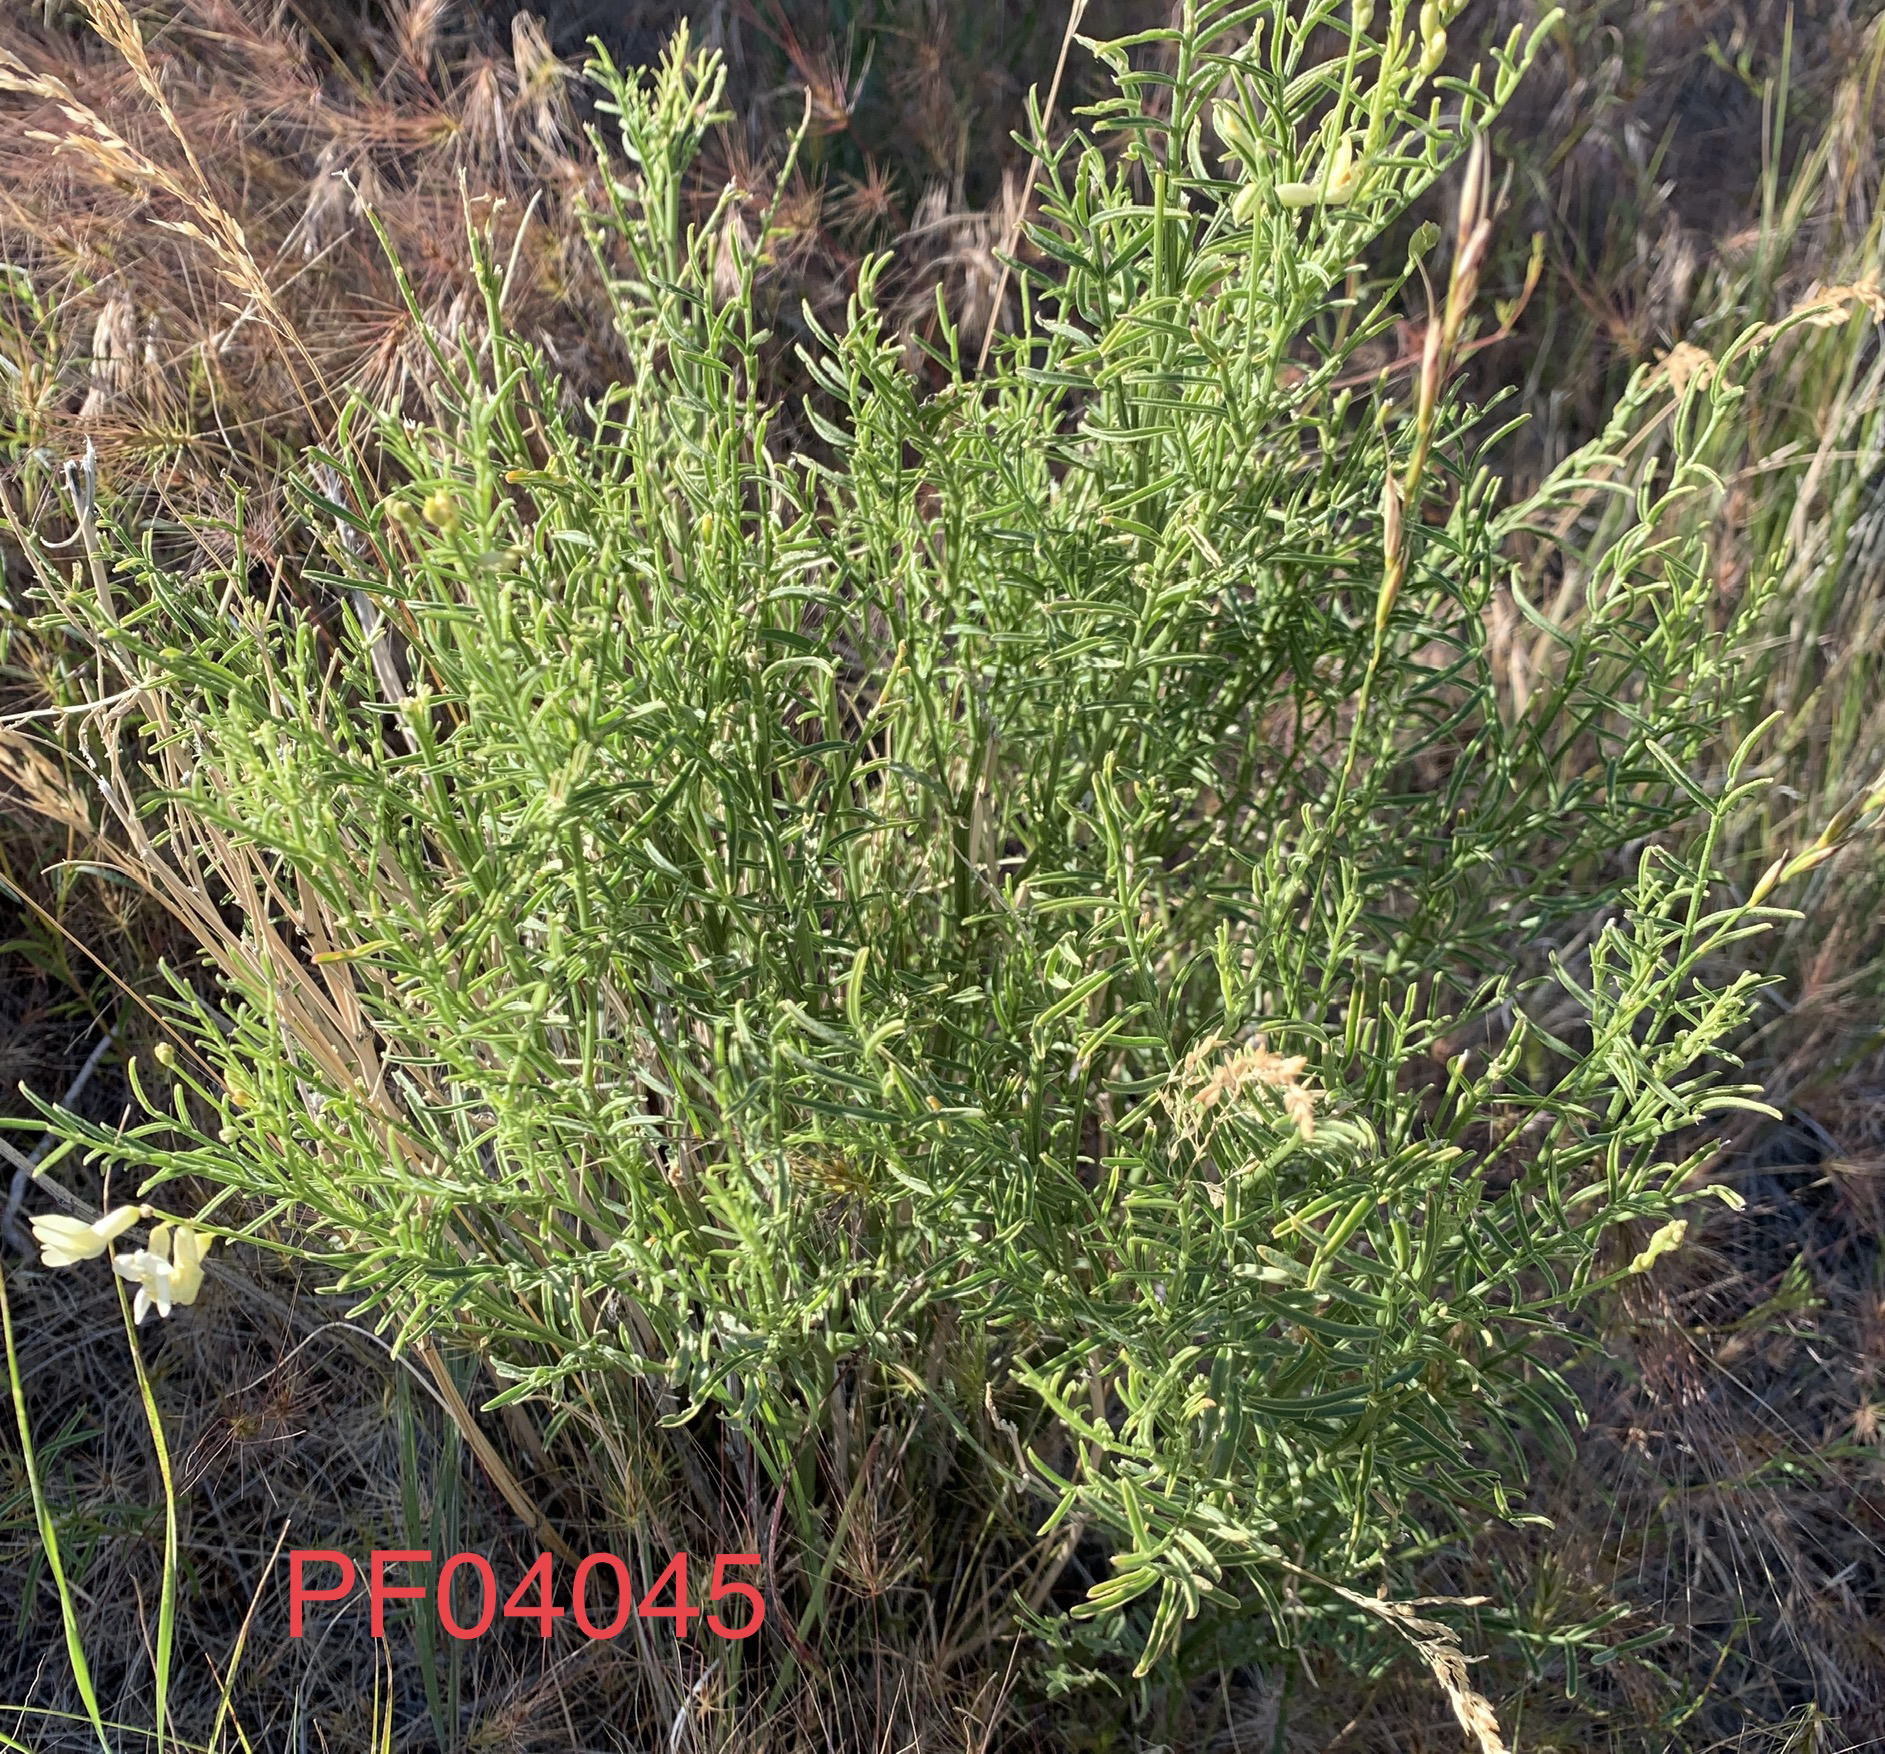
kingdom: Plantae
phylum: Tracheophyta
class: Magnoliopsida
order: Fabales
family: Fabaceae
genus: Astragalus
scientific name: Astragalus filipes
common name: Basalt milk-vetch
